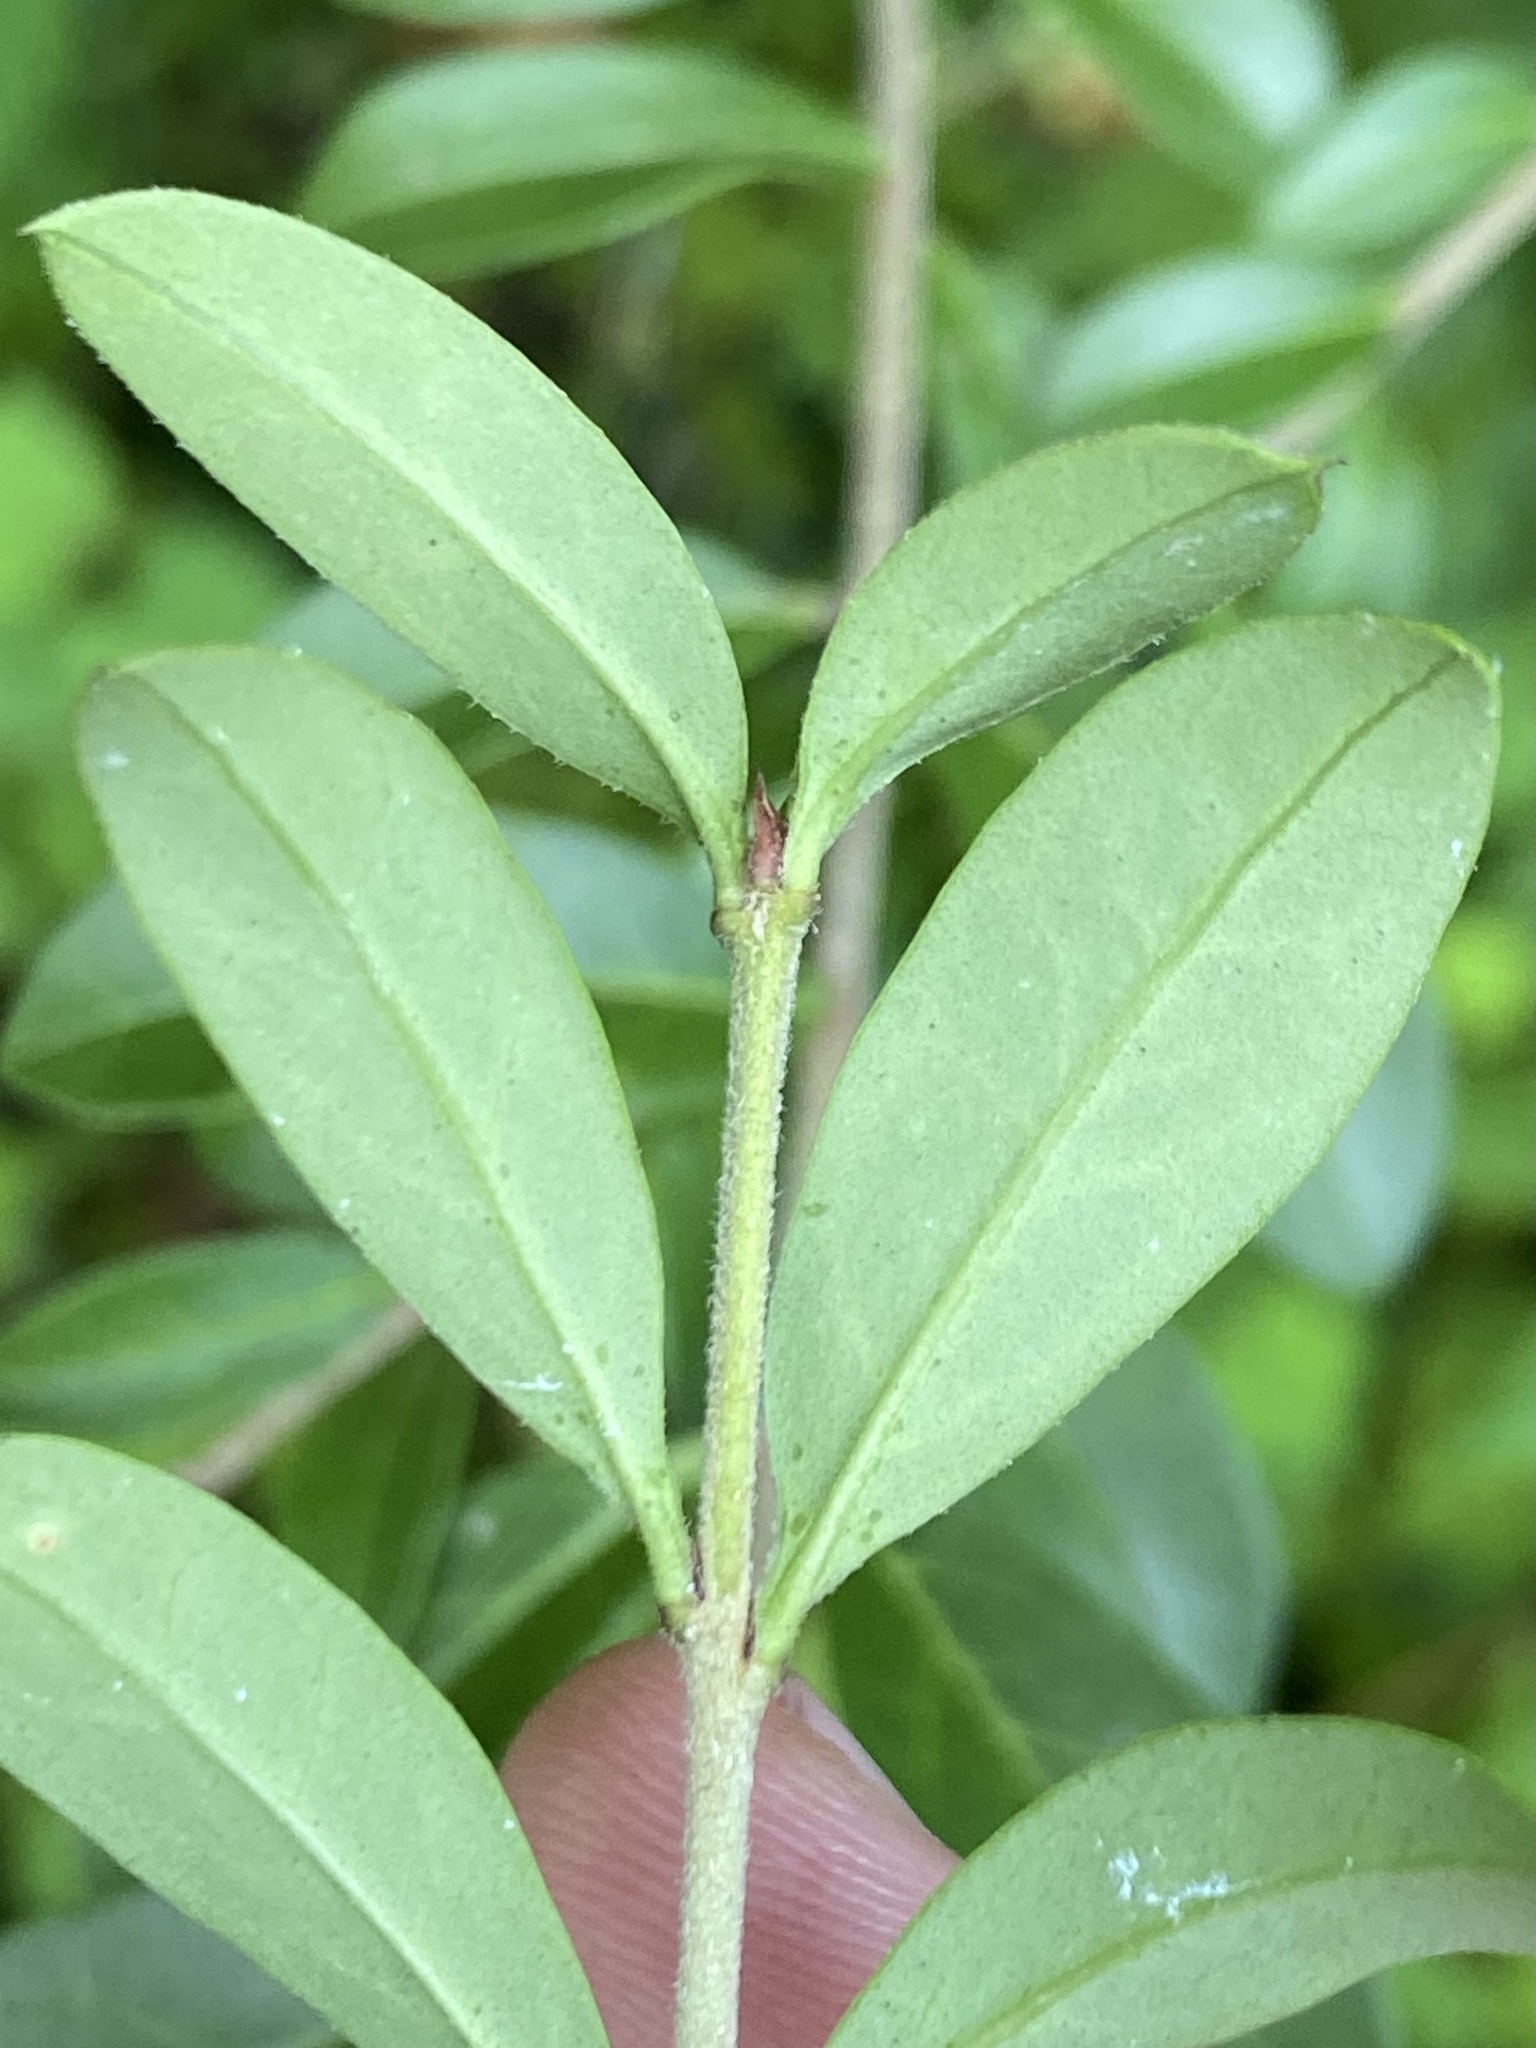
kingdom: Plantae
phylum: Tracheophyta
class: Magnoliopsida
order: Lamiales
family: Oleaceae
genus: Ligustrum
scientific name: Ligustrum sinense
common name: Chinese privet
